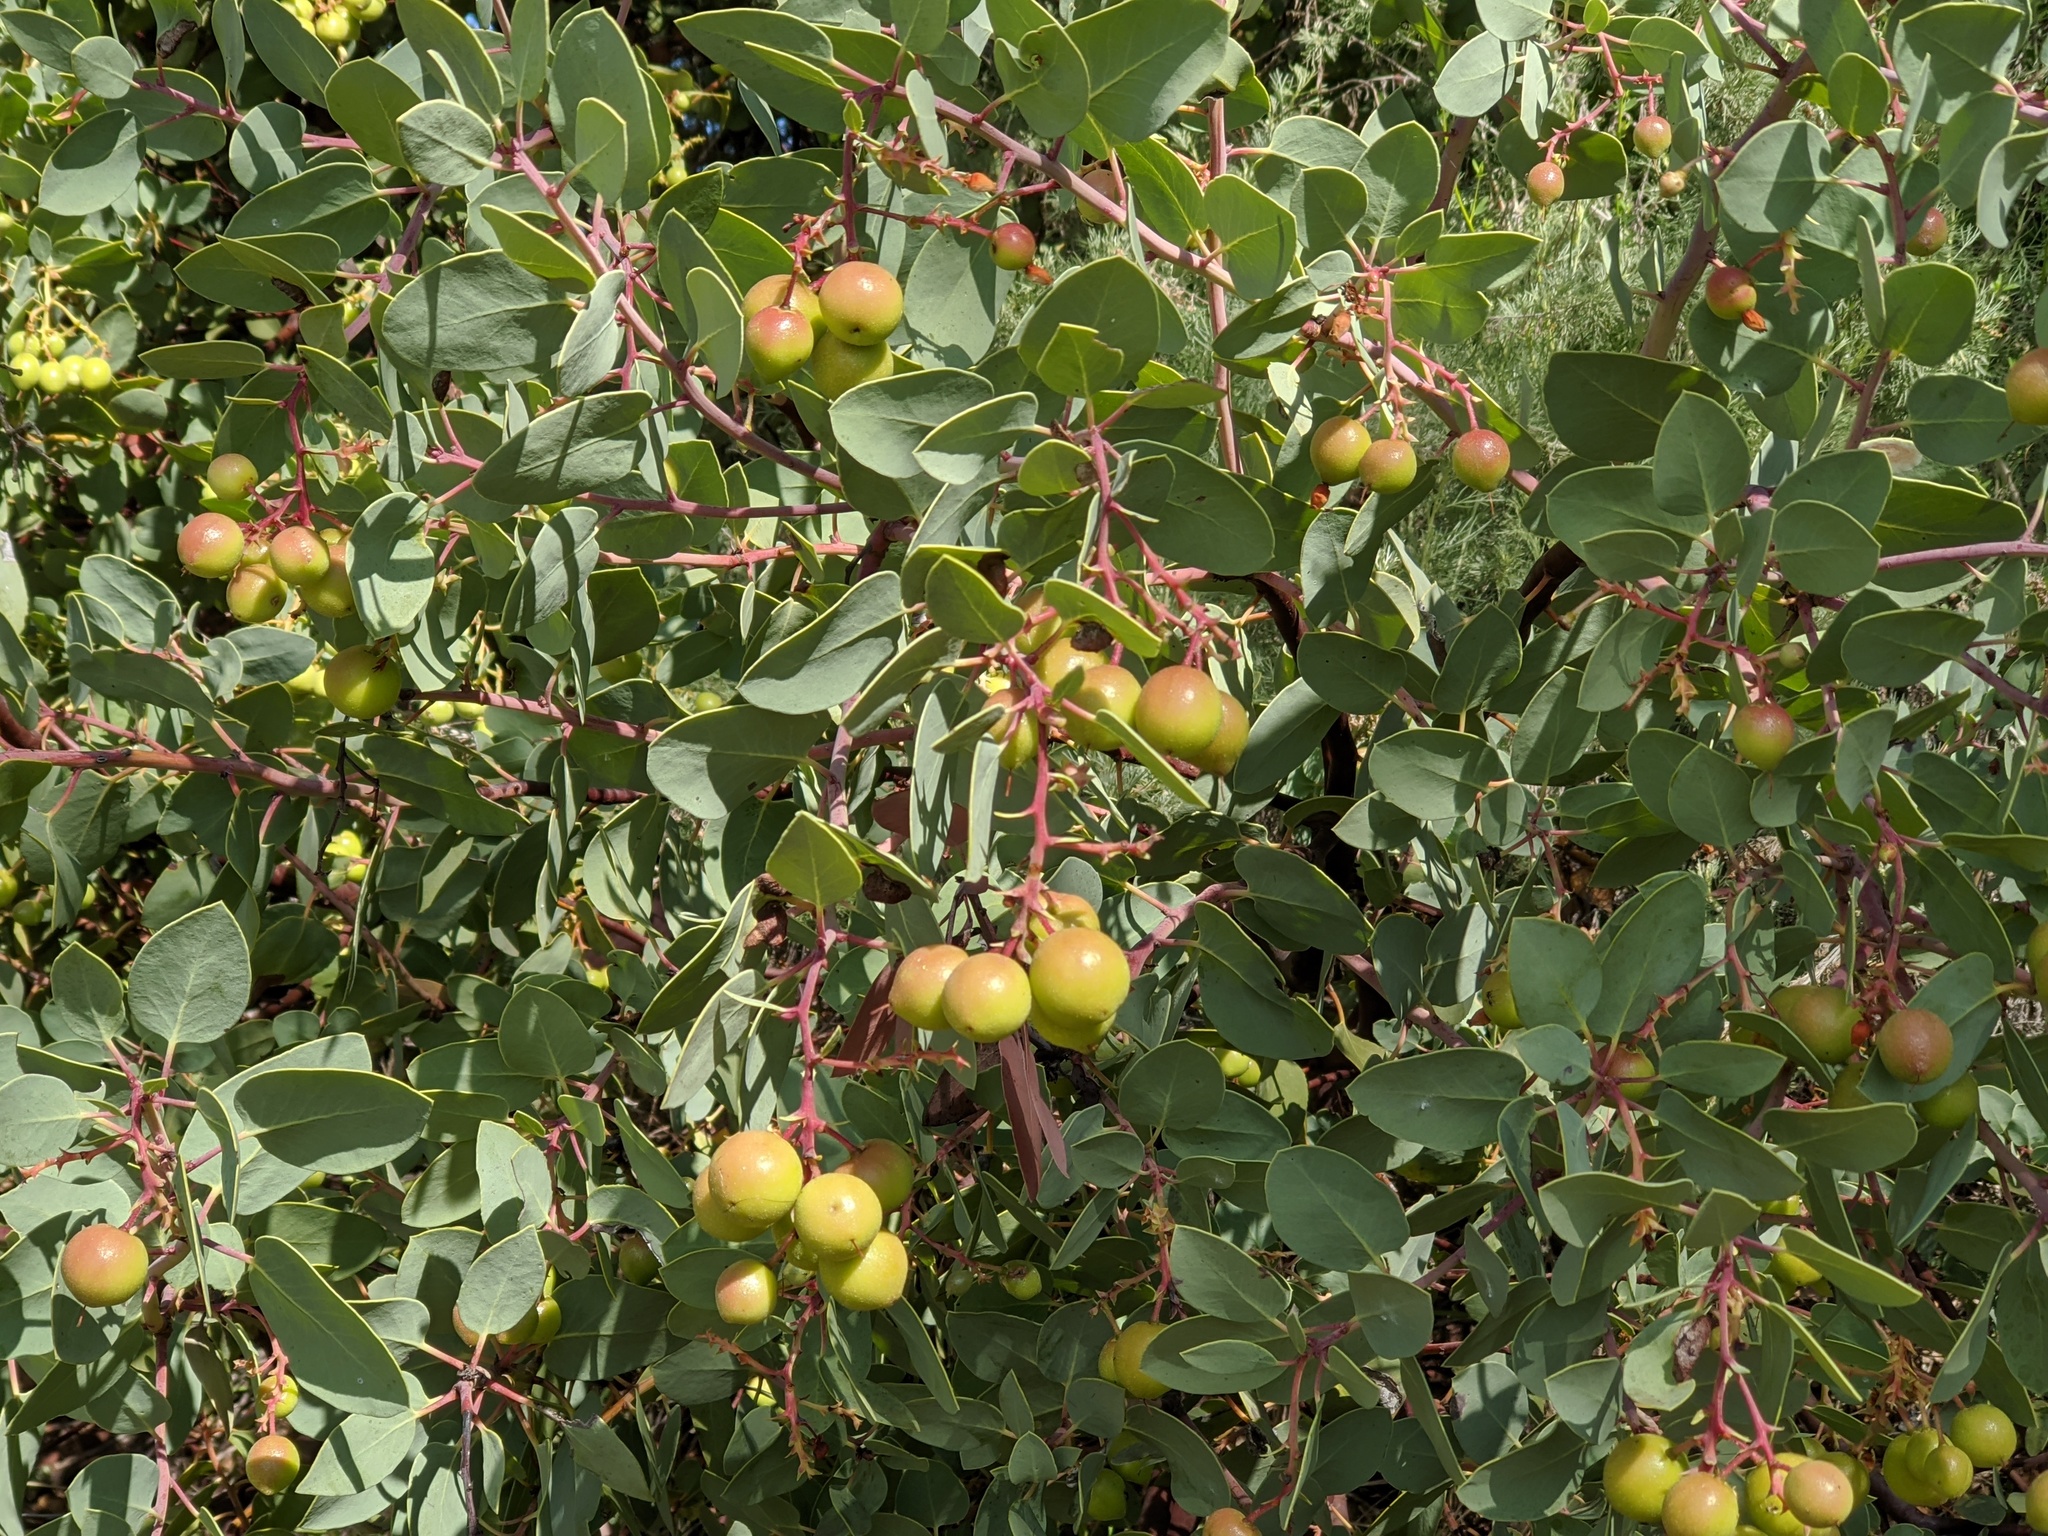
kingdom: Plantae
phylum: Tracheophyta
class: Magnoliopsida
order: Ericales
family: Ericaceae
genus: Arctostaphylos
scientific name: Arctostaphylos glauca
